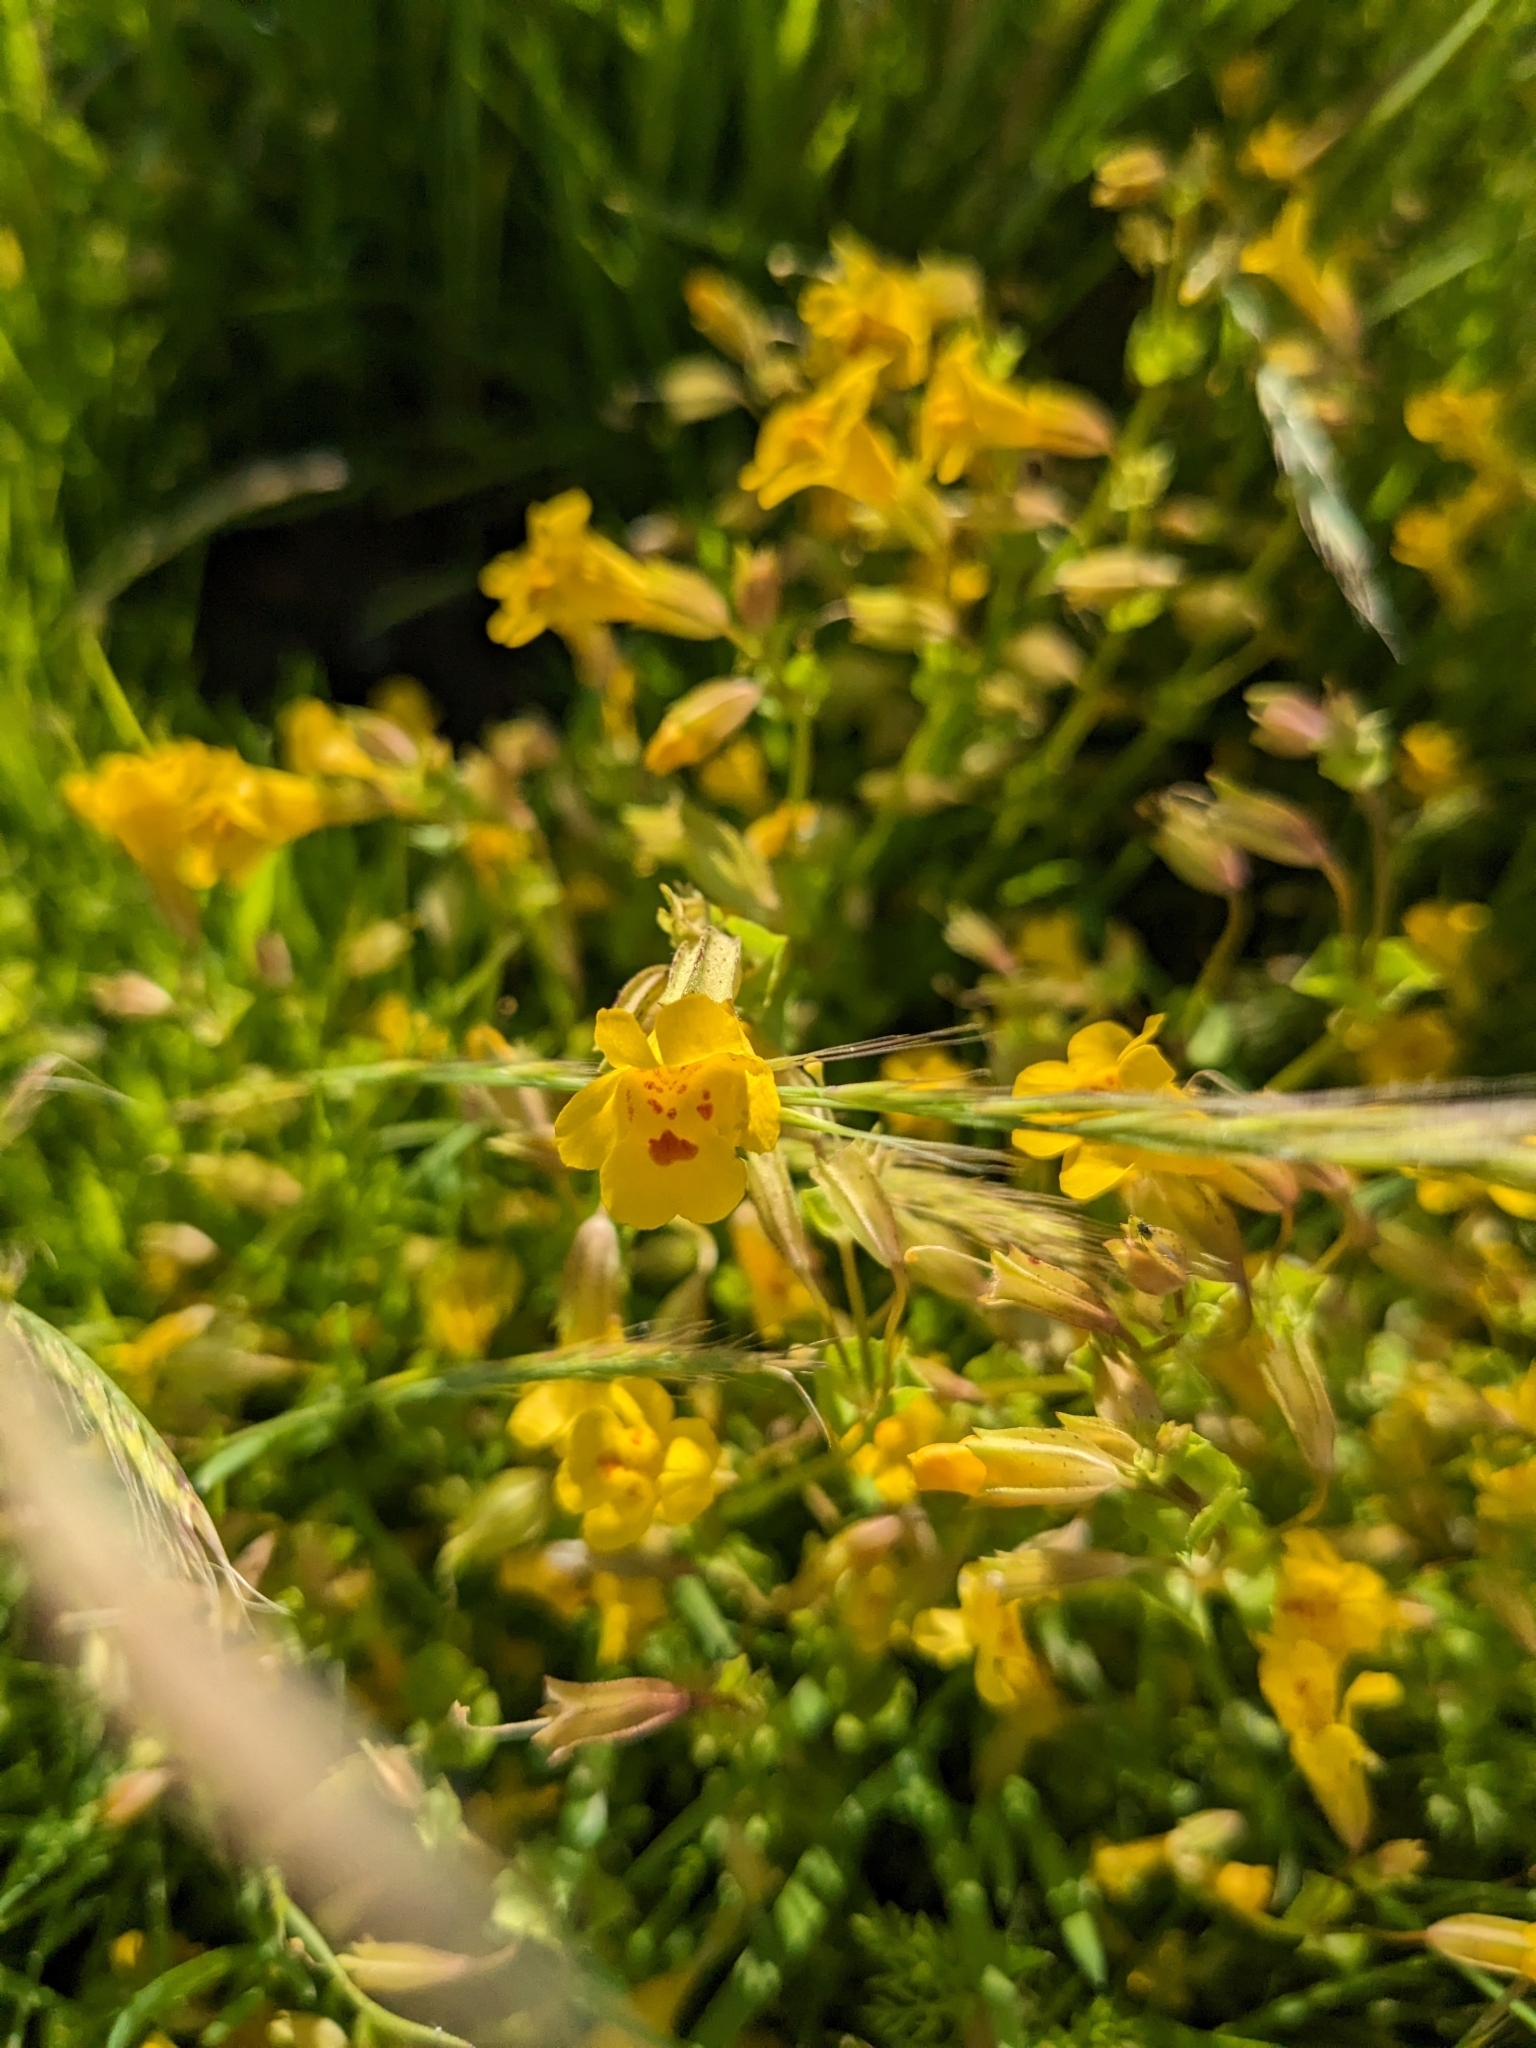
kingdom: Plantae
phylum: Tracheophyta
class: Magnoliopsida
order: Lamiales
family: Phrymaceae
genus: Erythranthe
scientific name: Erythranthe guttata
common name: Monkeyflower
